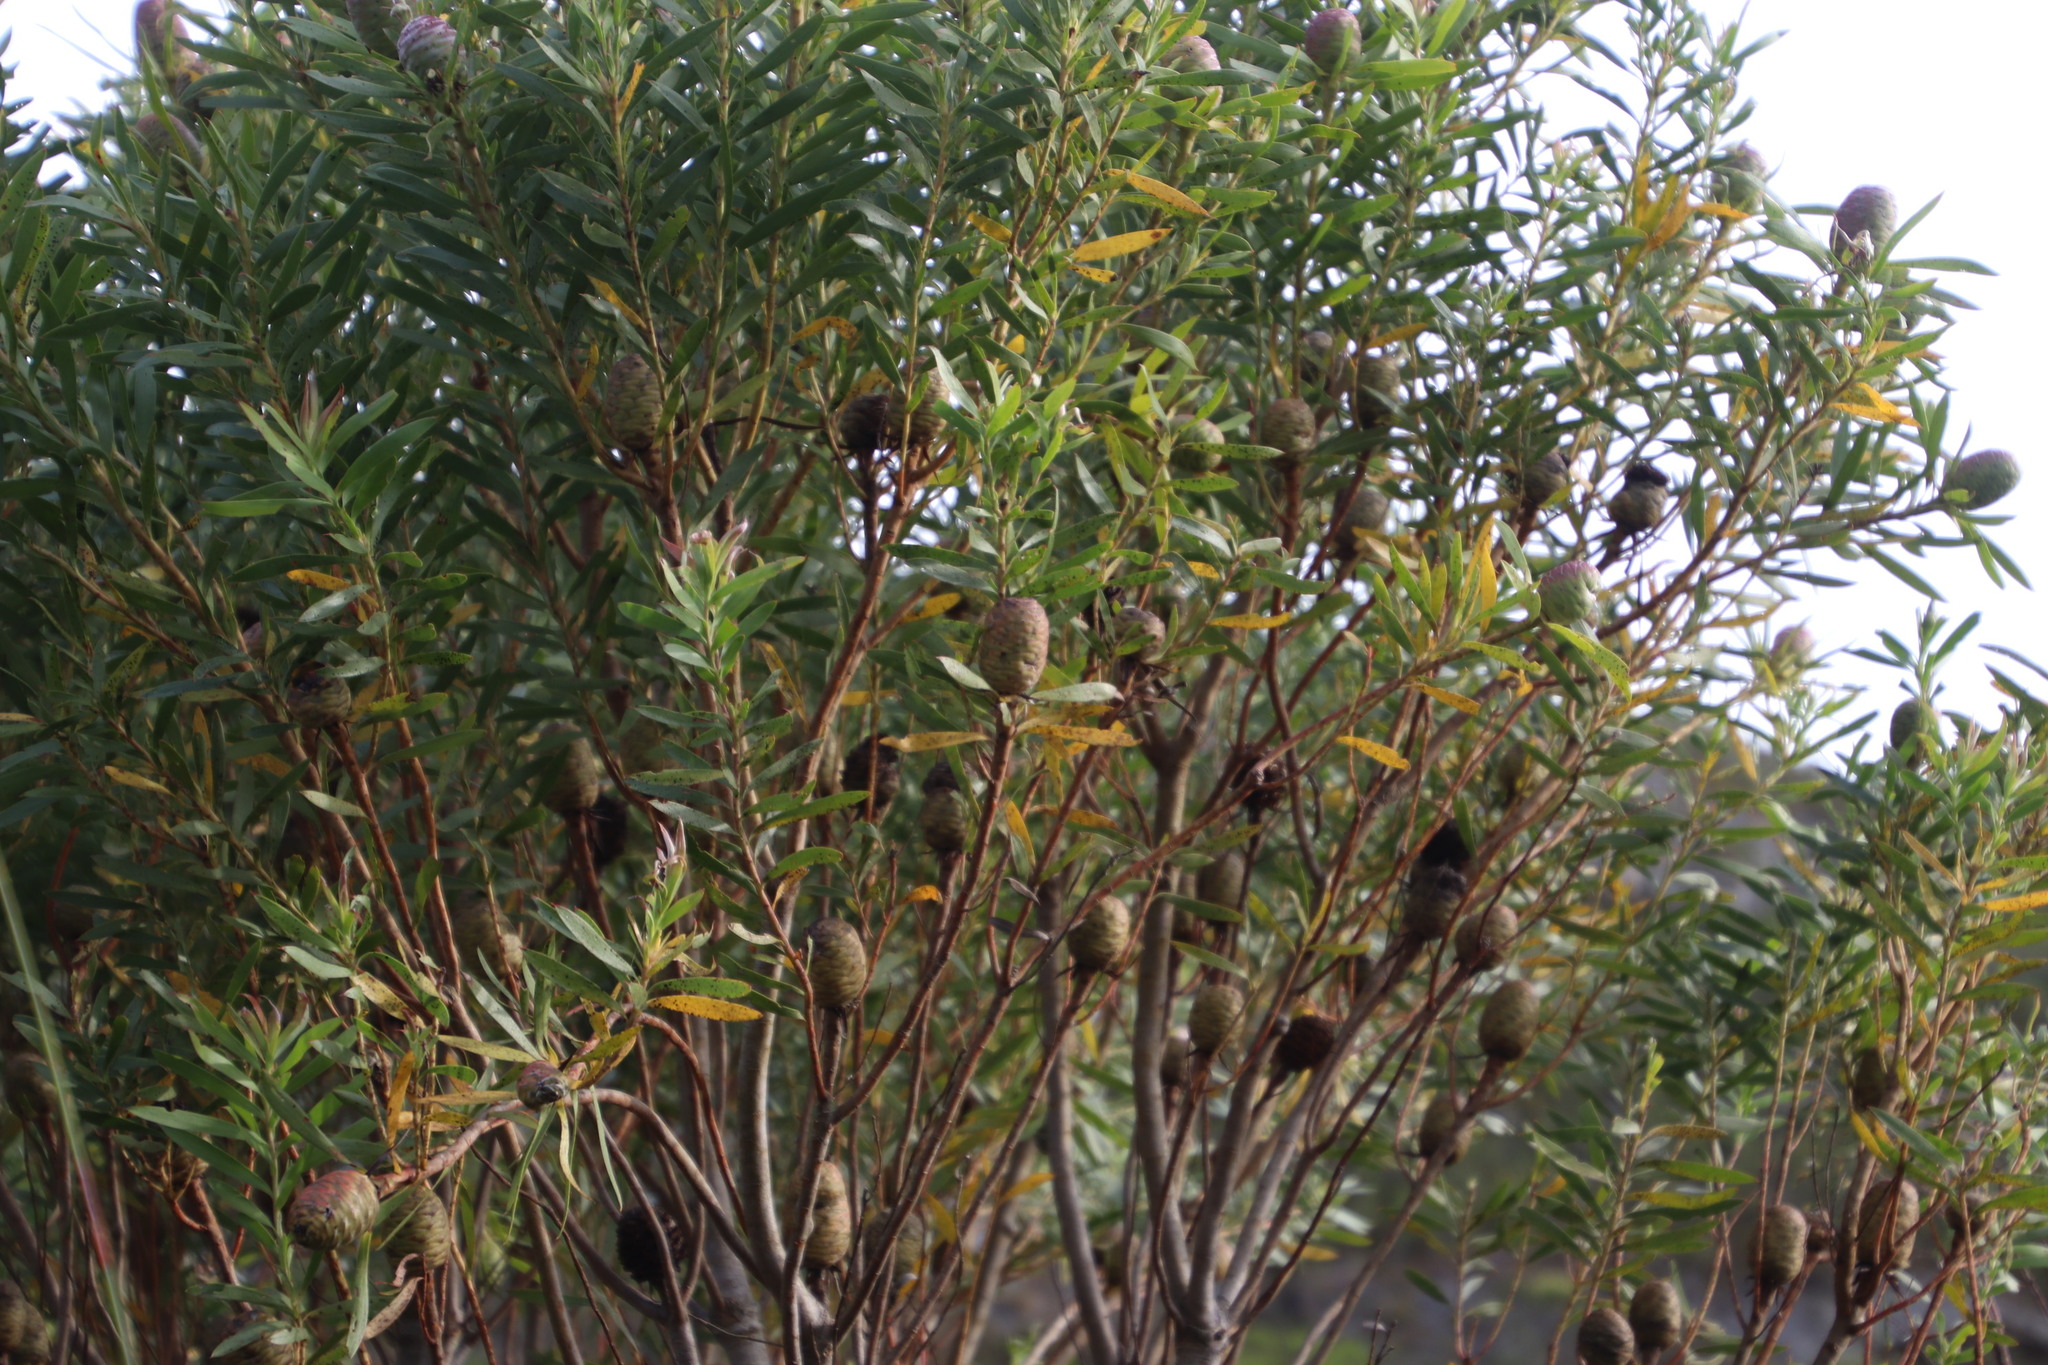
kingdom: Plantae
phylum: Tracheophyta
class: Magnoliopsida
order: Proteales
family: Proteaceae
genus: Leucadendron
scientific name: Leucadendron coniferum
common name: Dune conebush
